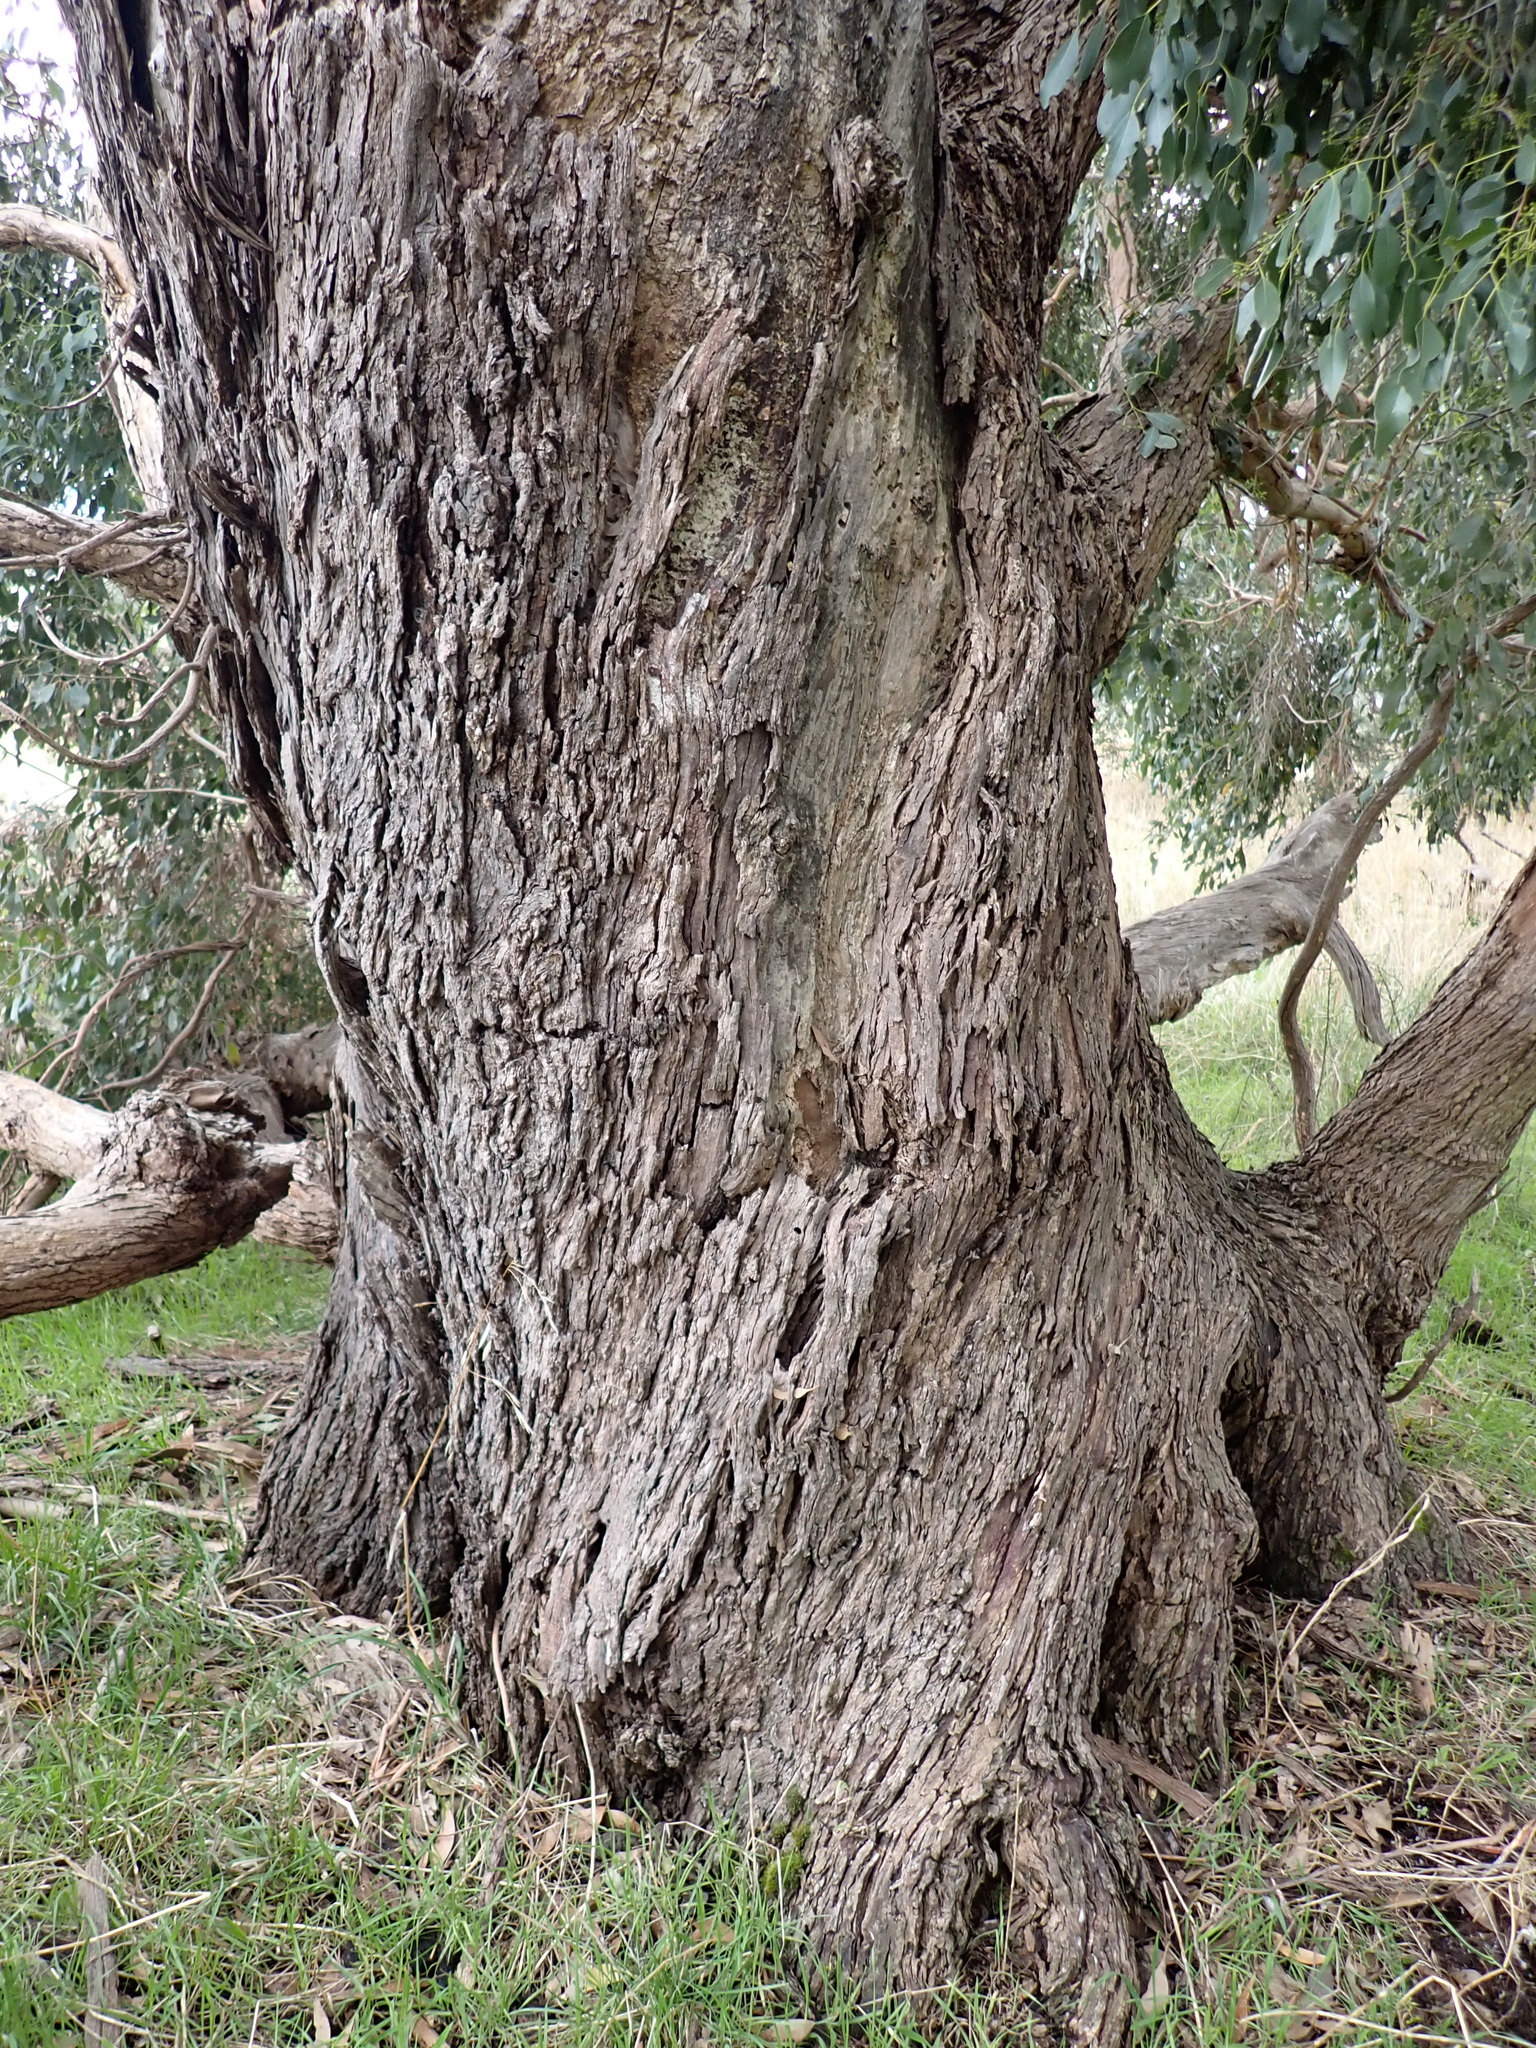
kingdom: Plantae
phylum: Tracheophyta
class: Magnoliopsida
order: Myrtales
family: Myrtaceae
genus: Eucalyptus
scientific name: Eucalyptus yarraensis
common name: Yarra gum
